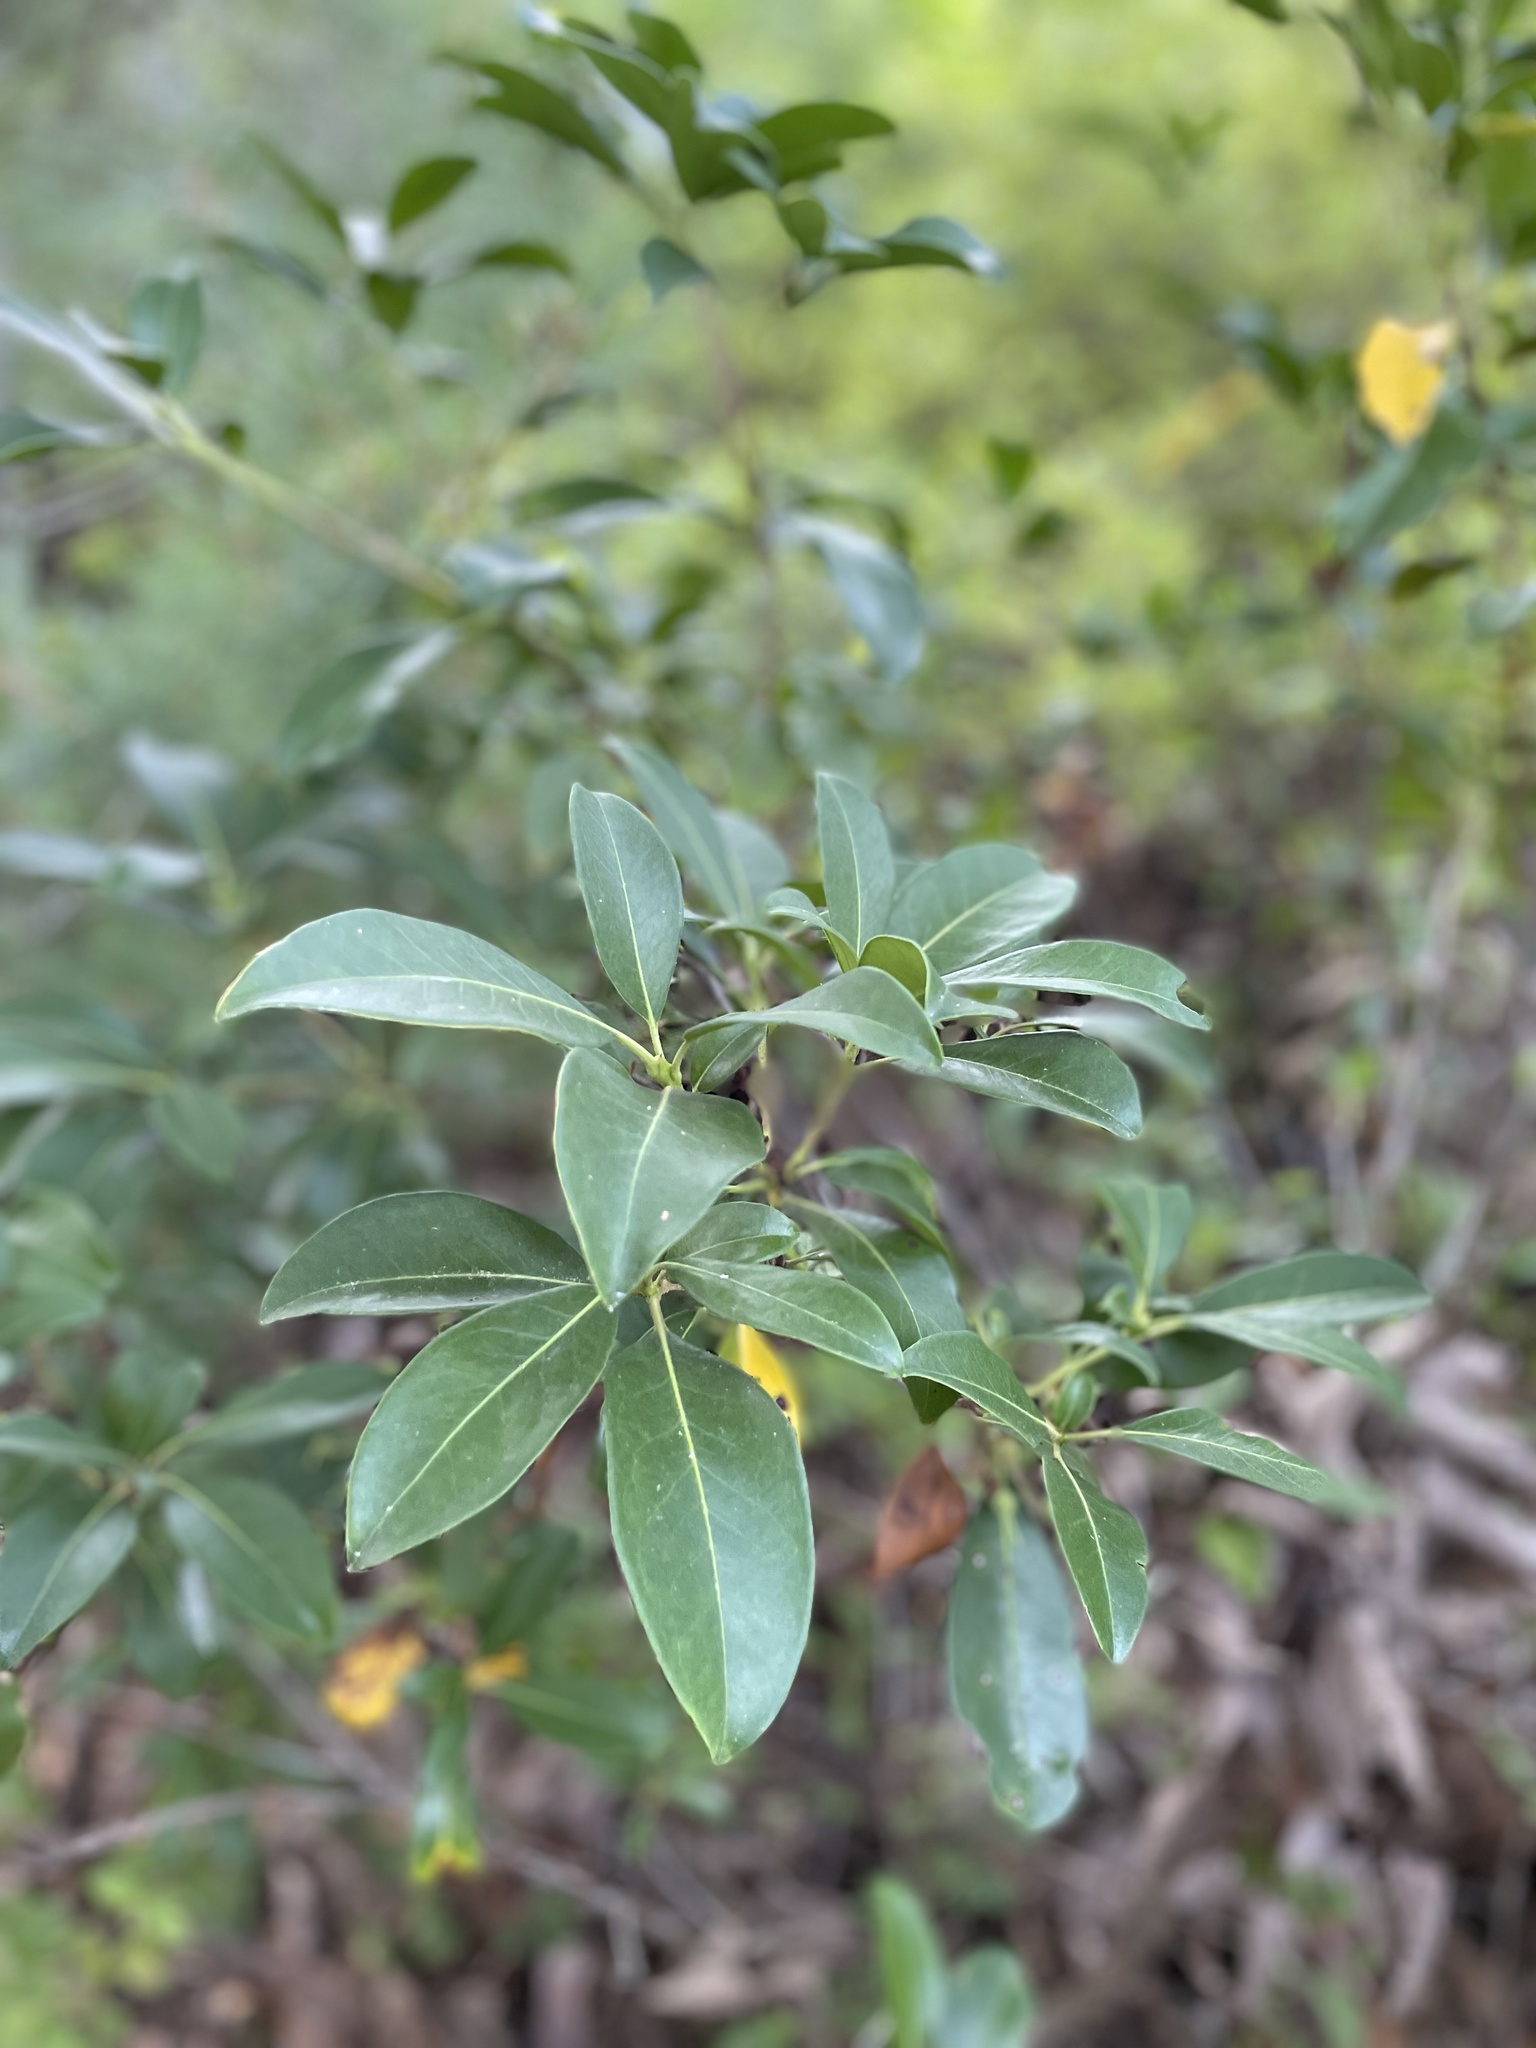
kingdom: Plantae
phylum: Tracheophyta
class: Magnoliopsida
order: Ericales
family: Ericaceae
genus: Kalmia
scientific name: Kalmia latifolia
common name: Mountain-laurel
